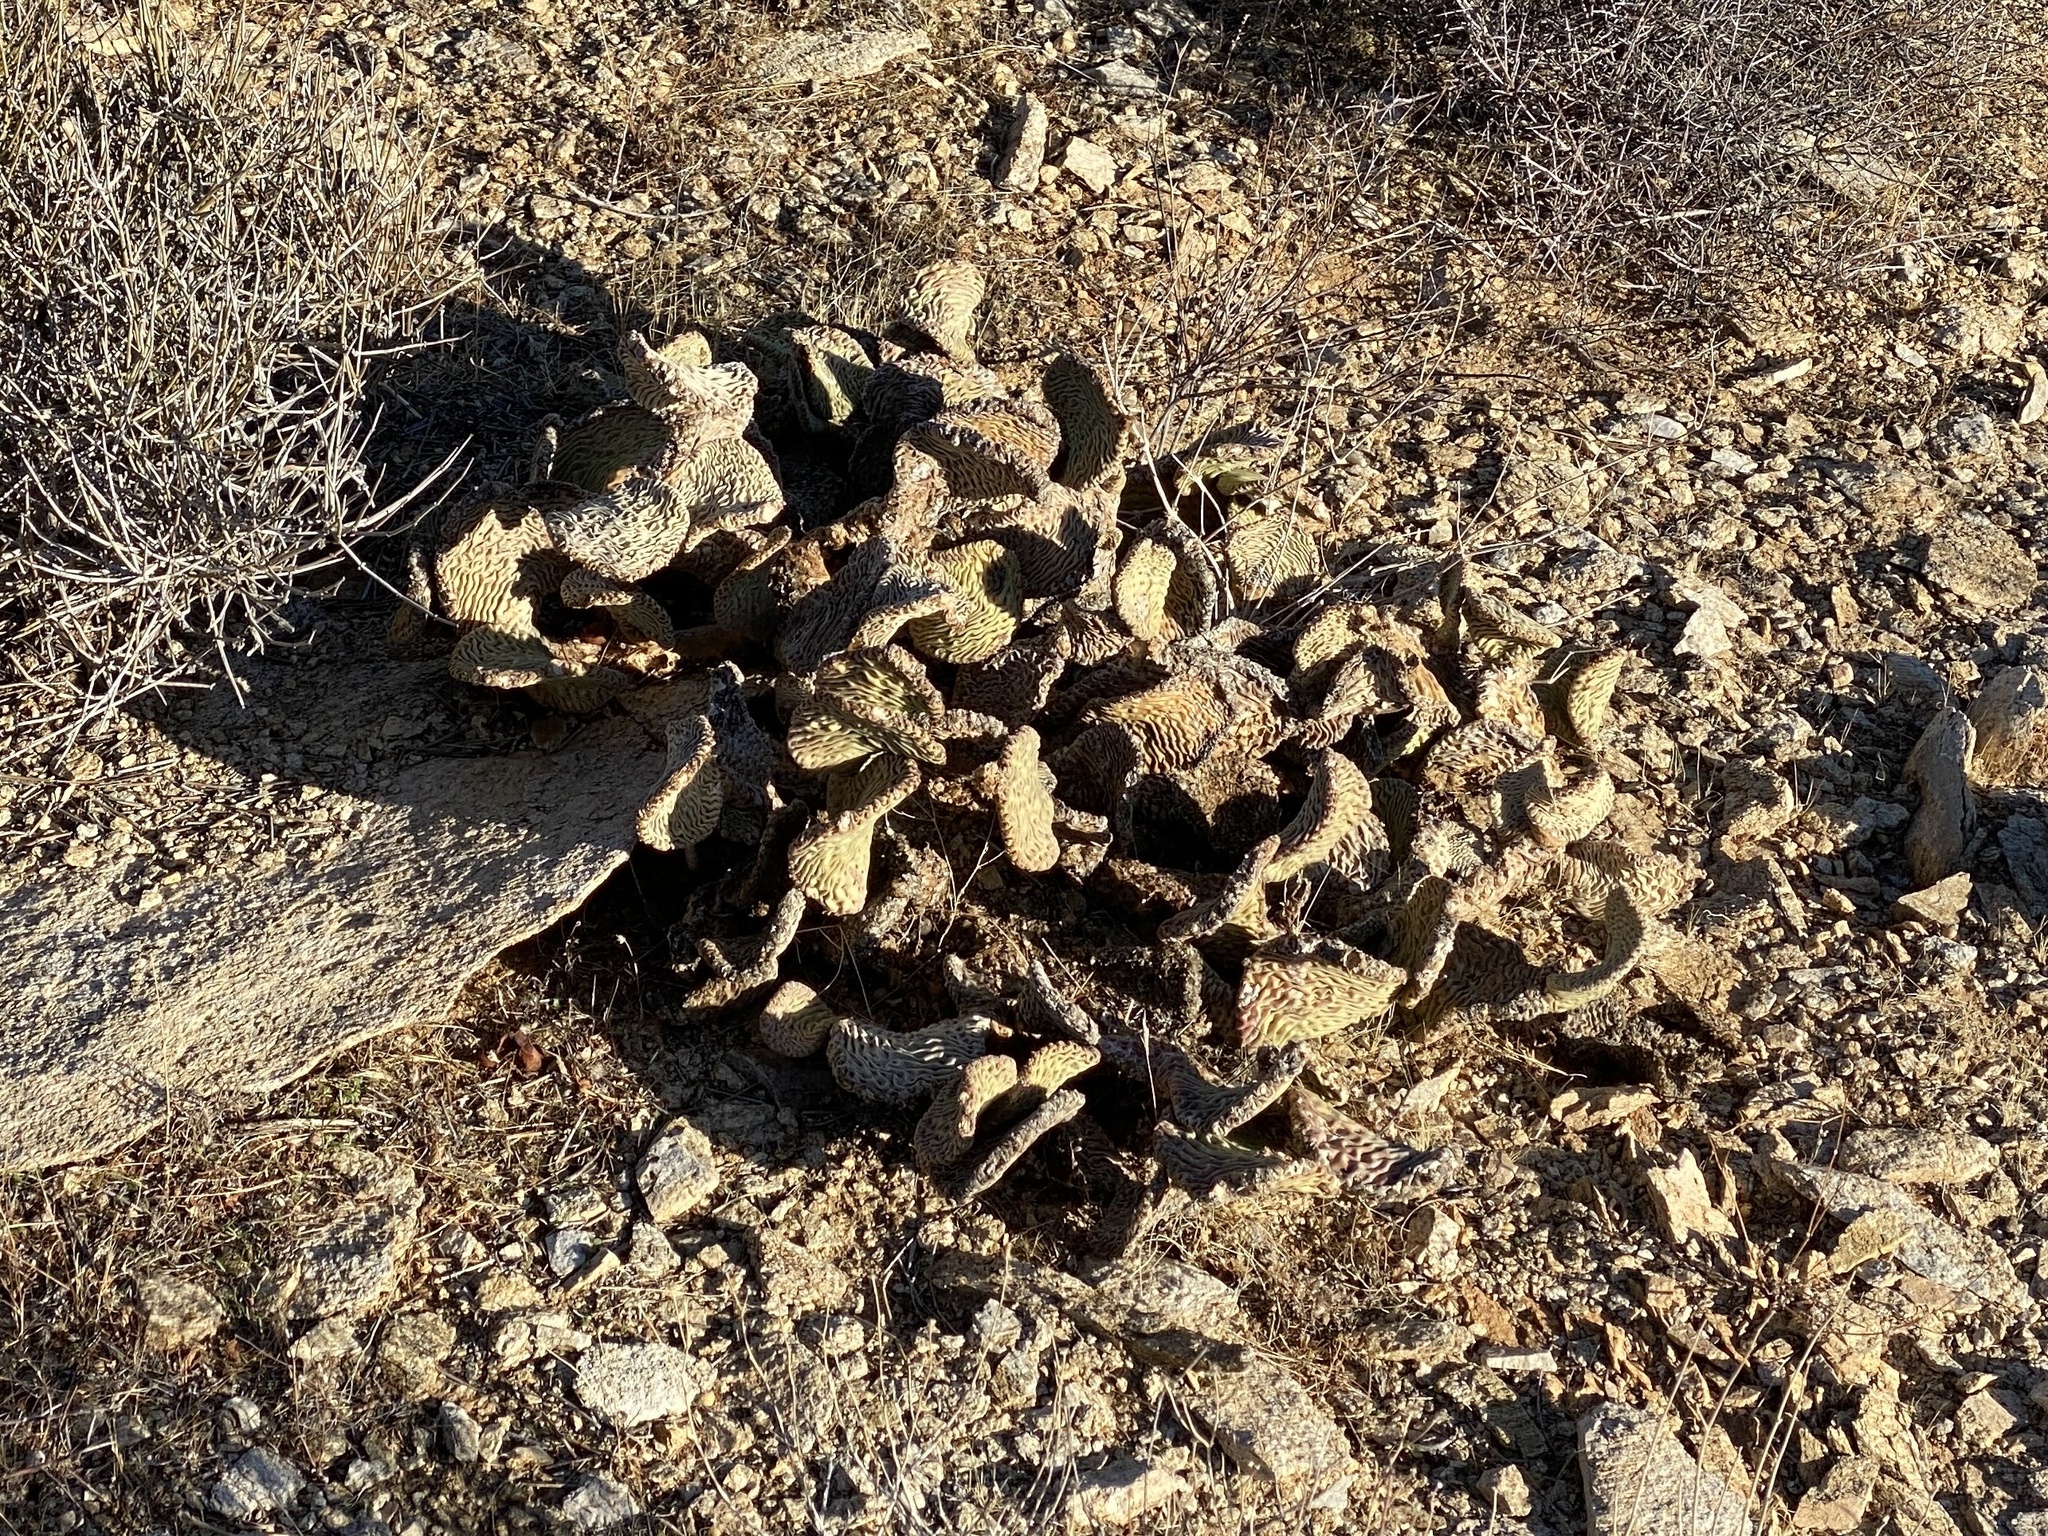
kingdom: Plantae
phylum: Tracheophyta
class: Magnoliopsida
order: Caryophyllales
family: Cactaceae
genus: Opuntia
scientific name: Opuntia basilaris
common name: Beavertail prickly-pear
